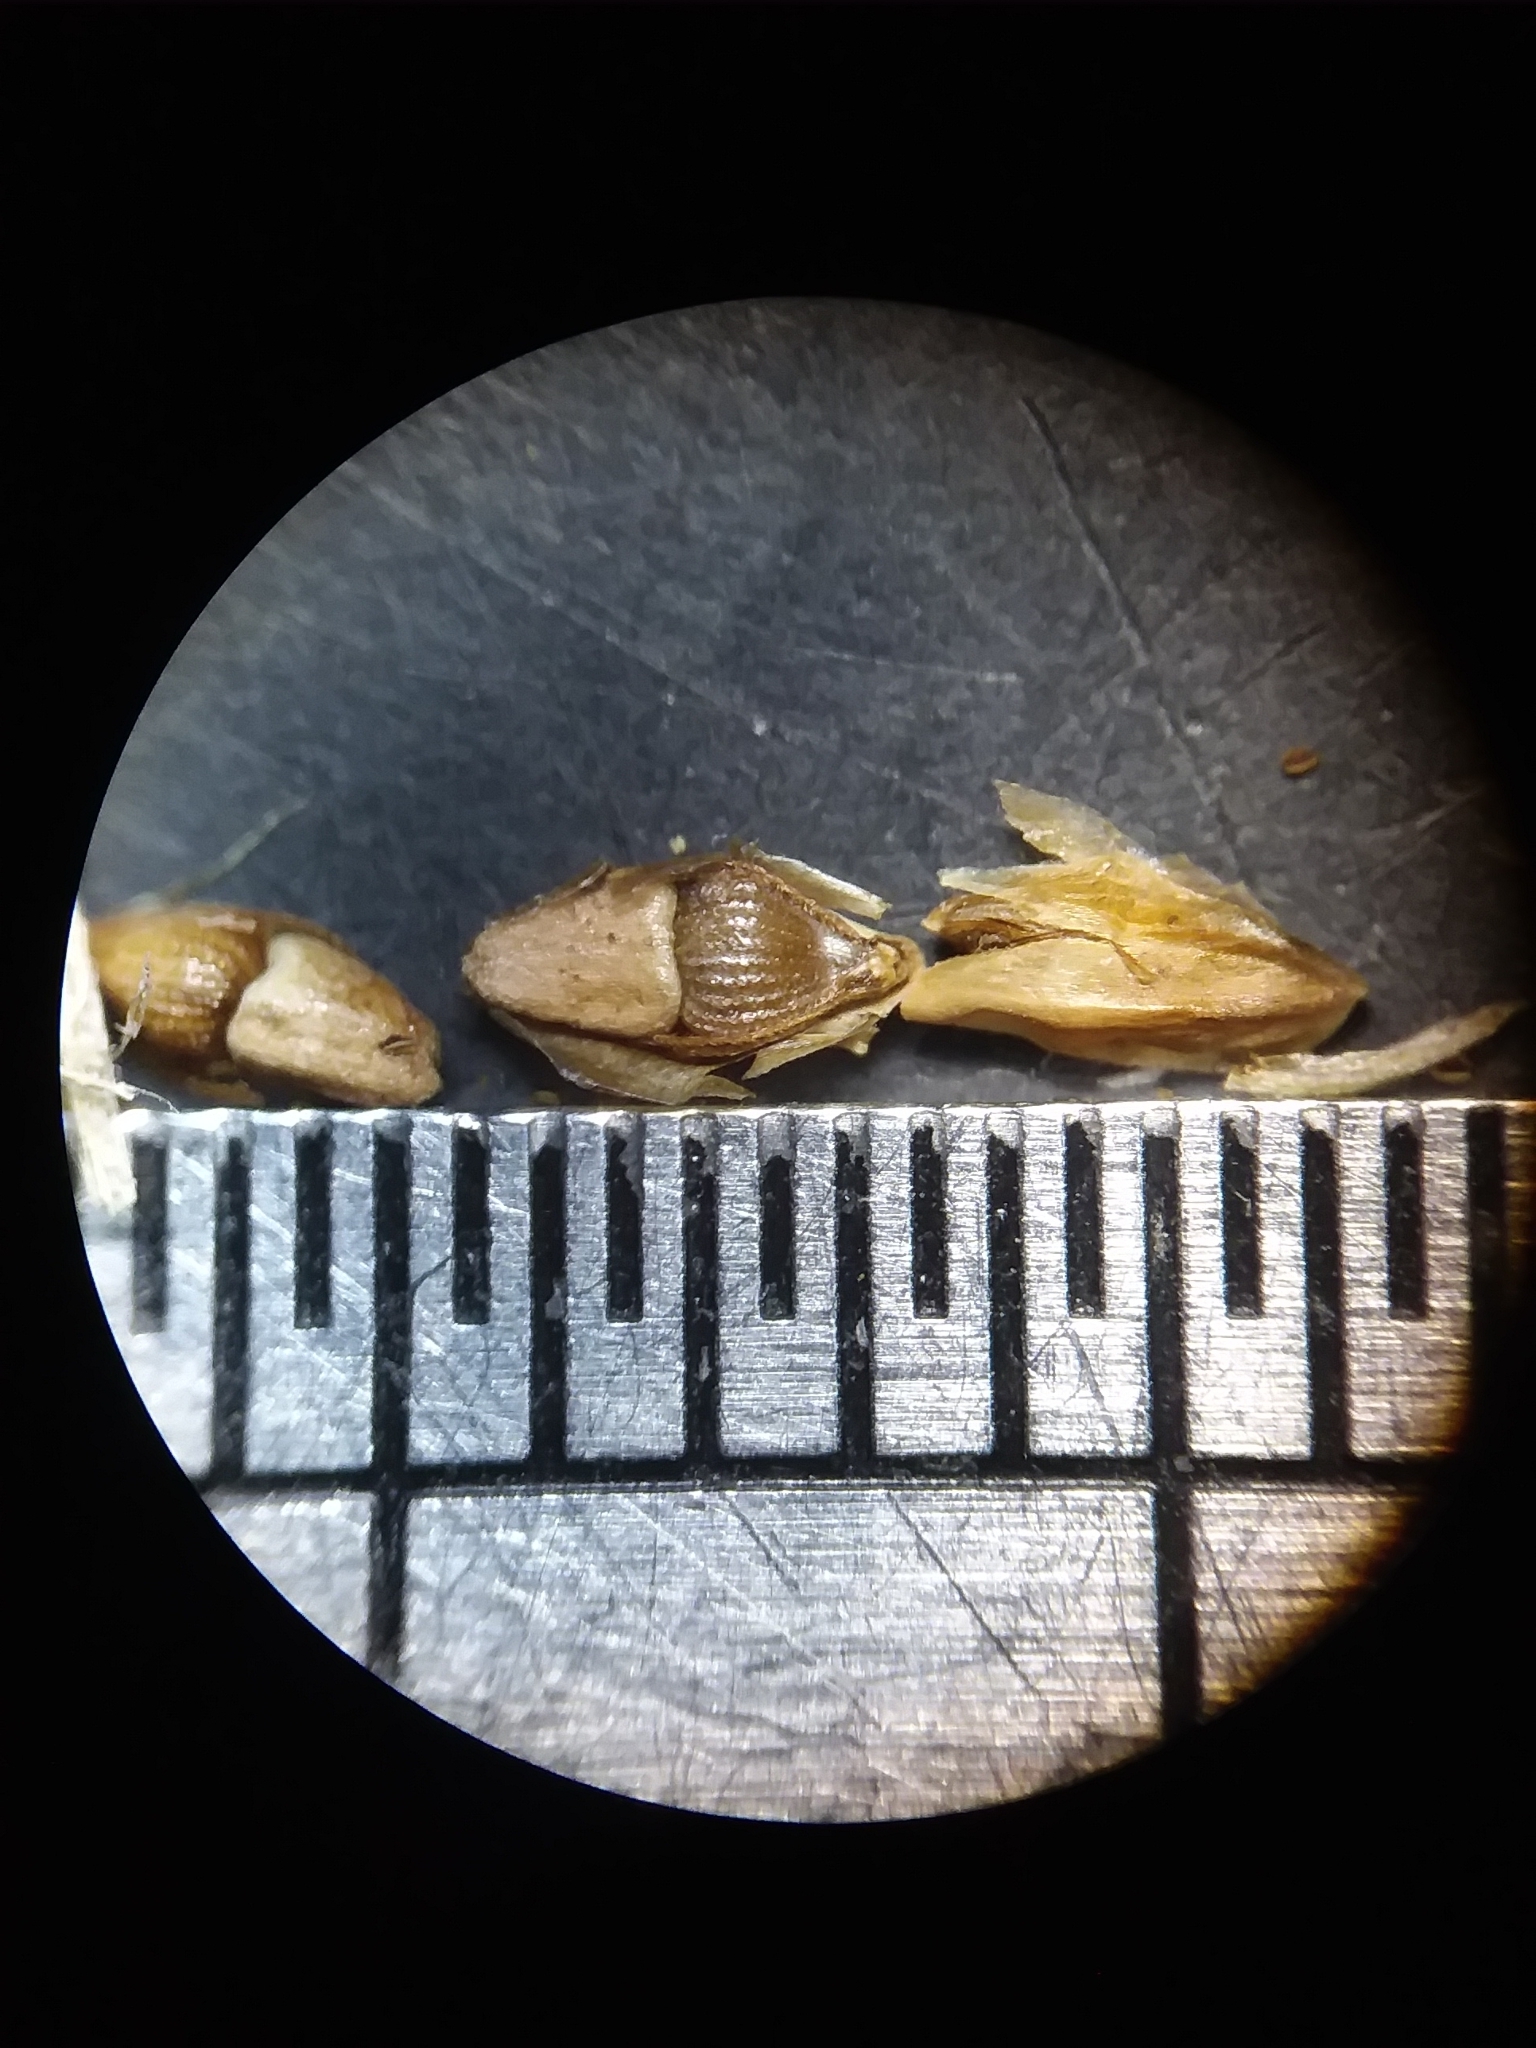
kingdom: Plantae
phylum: Tracheophyta
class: Liliopsida
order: Poales
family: Cyperaceae
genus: Eleocharis
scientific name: Eleocharis tuberculosa
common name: Cone-cup spikerush
